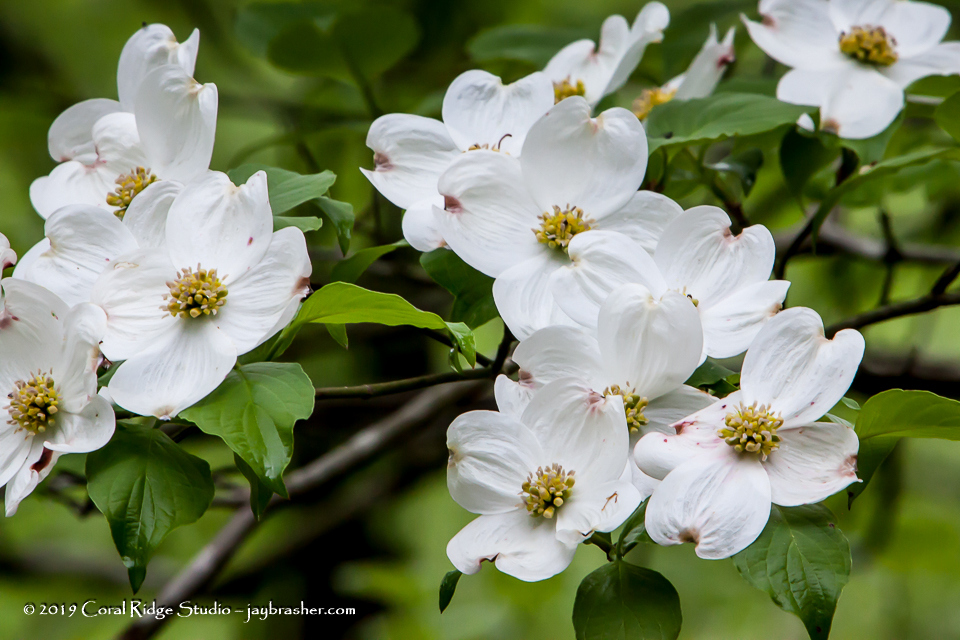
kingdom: Plantae
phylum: Tracheophyta
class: Magnoliopsida
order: Cornales
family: Cornaceae
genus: Cornus
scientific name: Cornus florida
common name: Flowering dogwood
